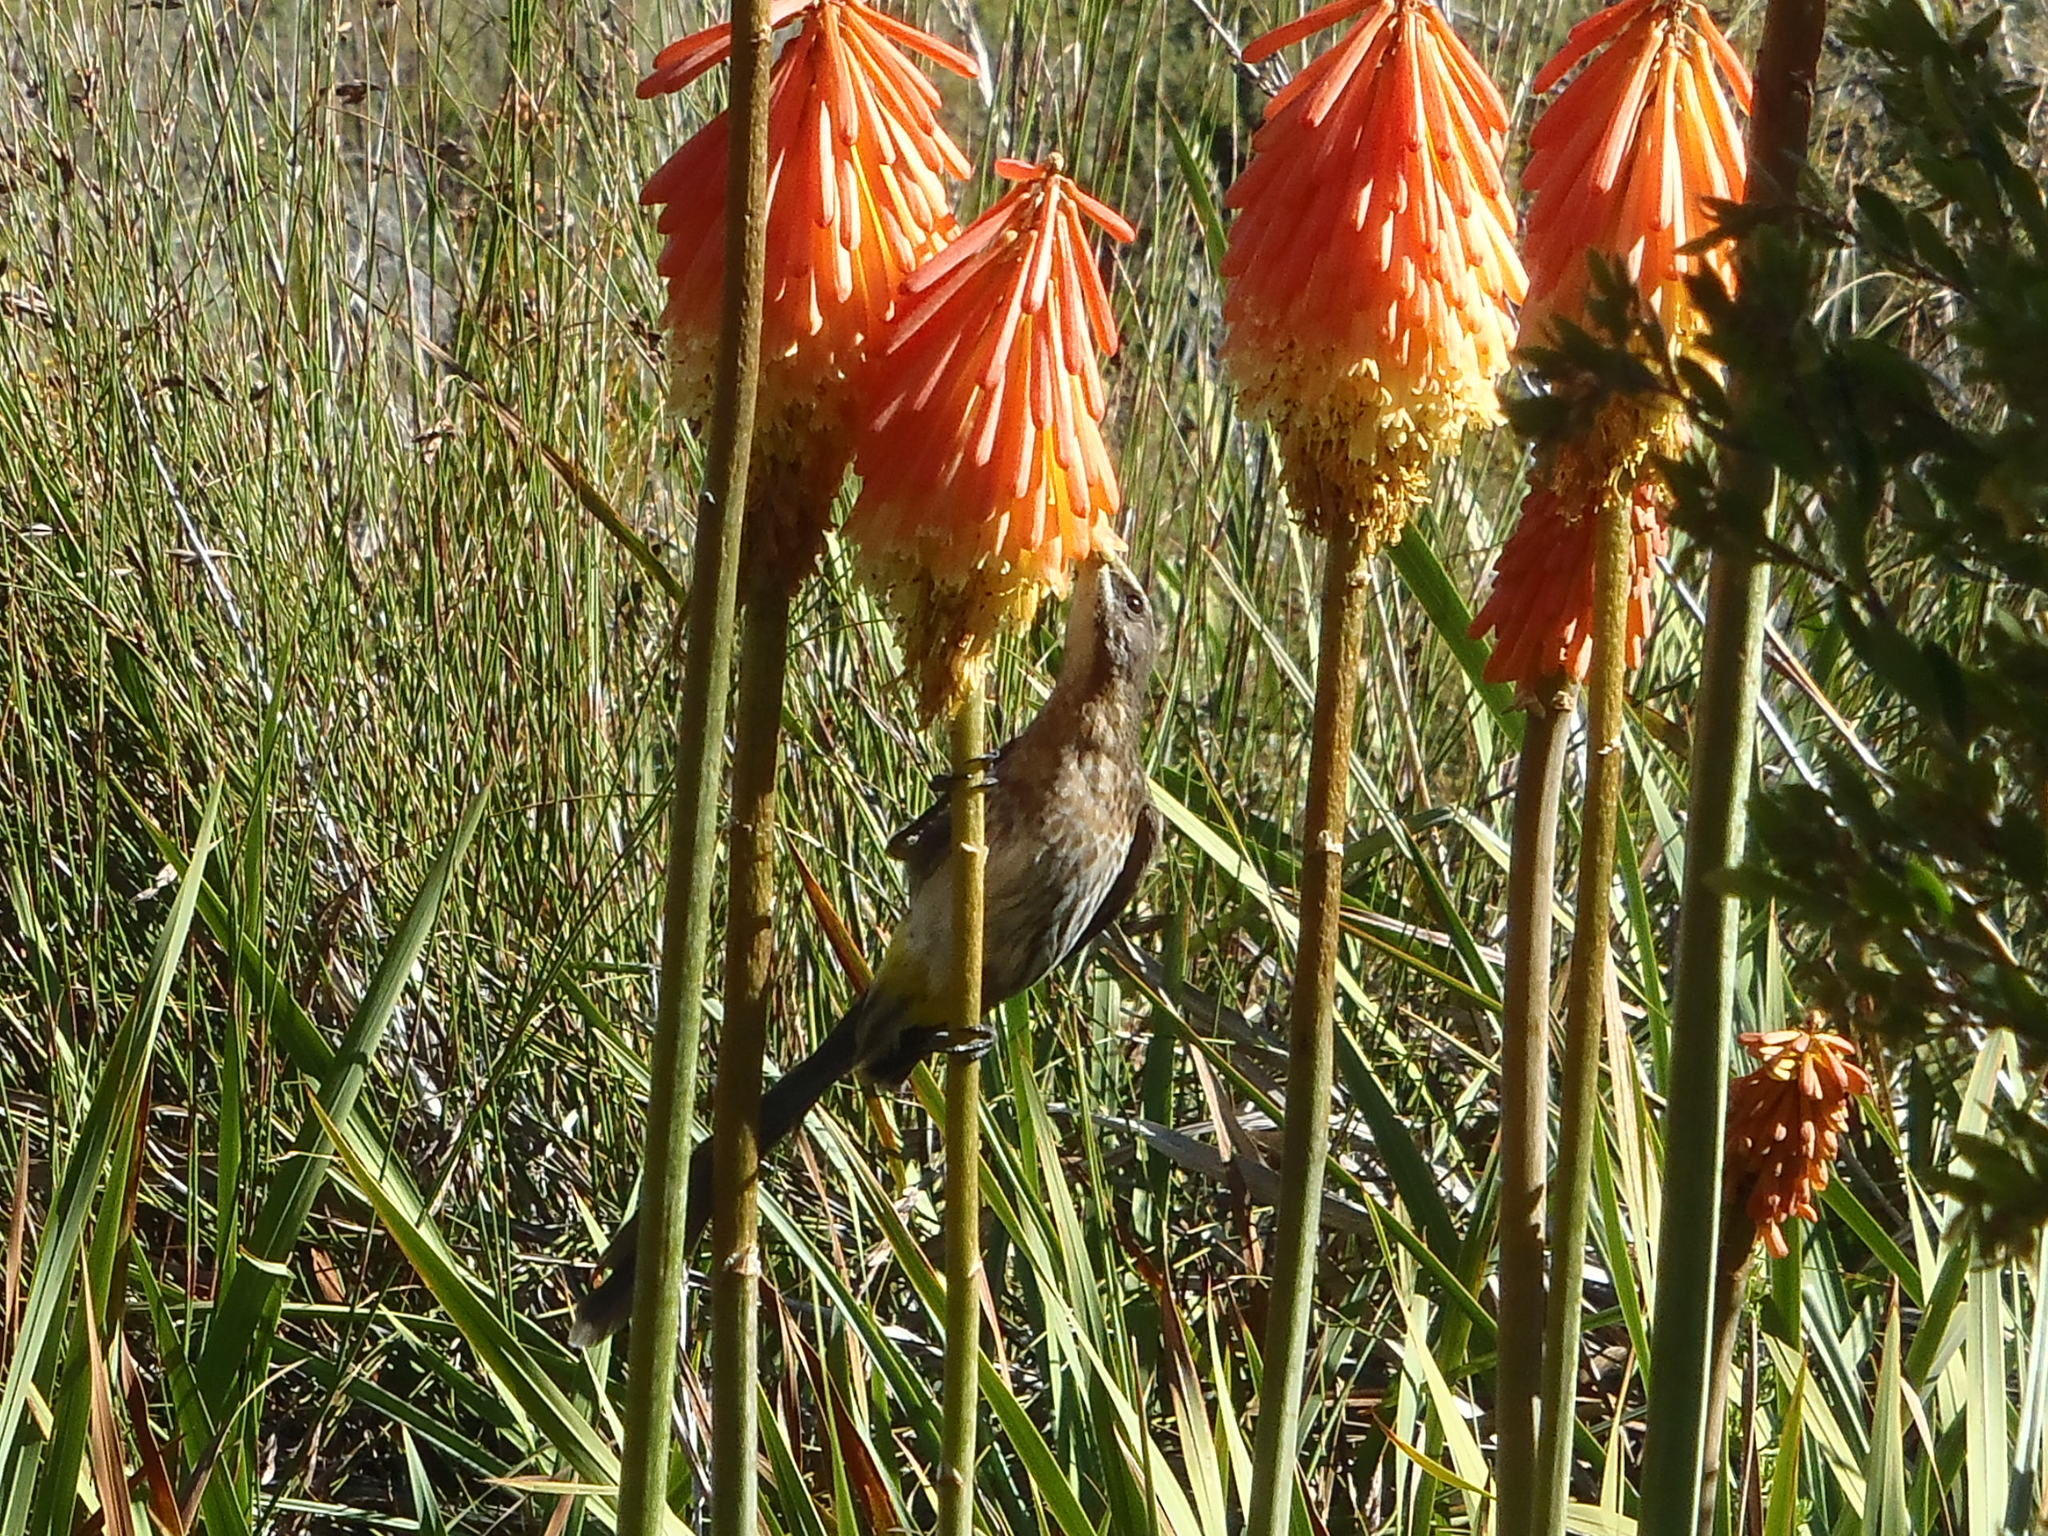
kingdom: Plantae
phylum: Tracheophyta
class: Liliopsida
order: Asparagales
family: Asphodelaceae
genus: Kniphofia
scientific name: Kniphofia uvaria
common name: Red-hot-poker
